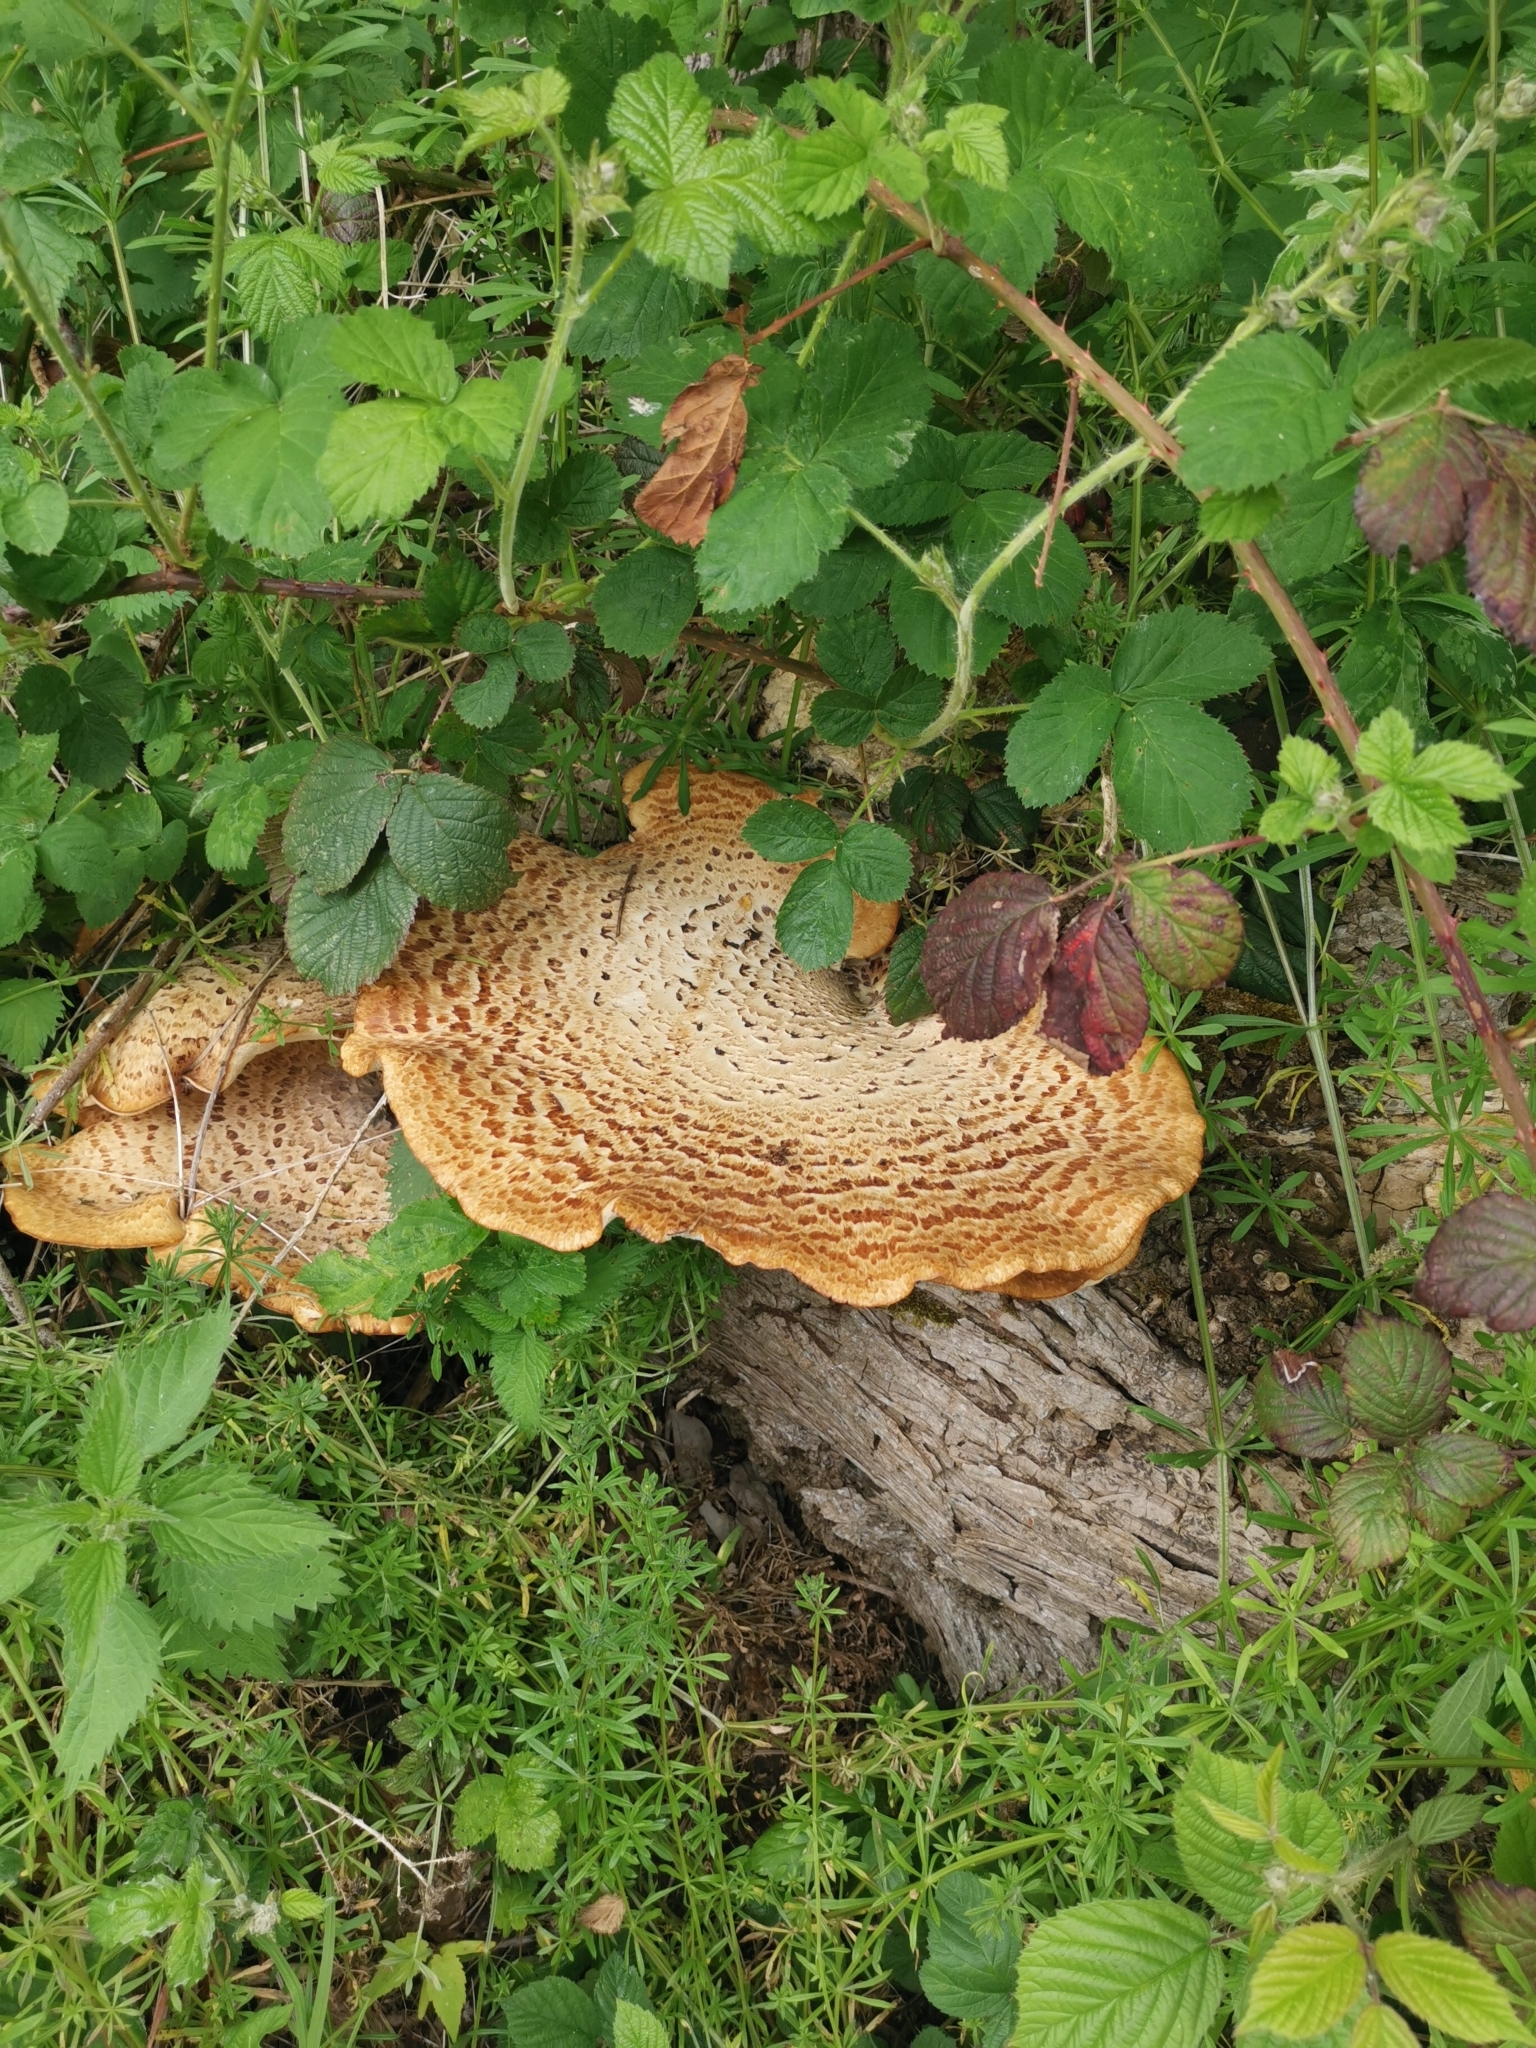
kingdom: Fungi
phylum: Basidiomycota
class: Agaricomycetes
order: Polyporales
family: Polyporaceae
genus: Cerioporus
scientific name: Cerioporus squamosus
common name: Dryad's saddle
